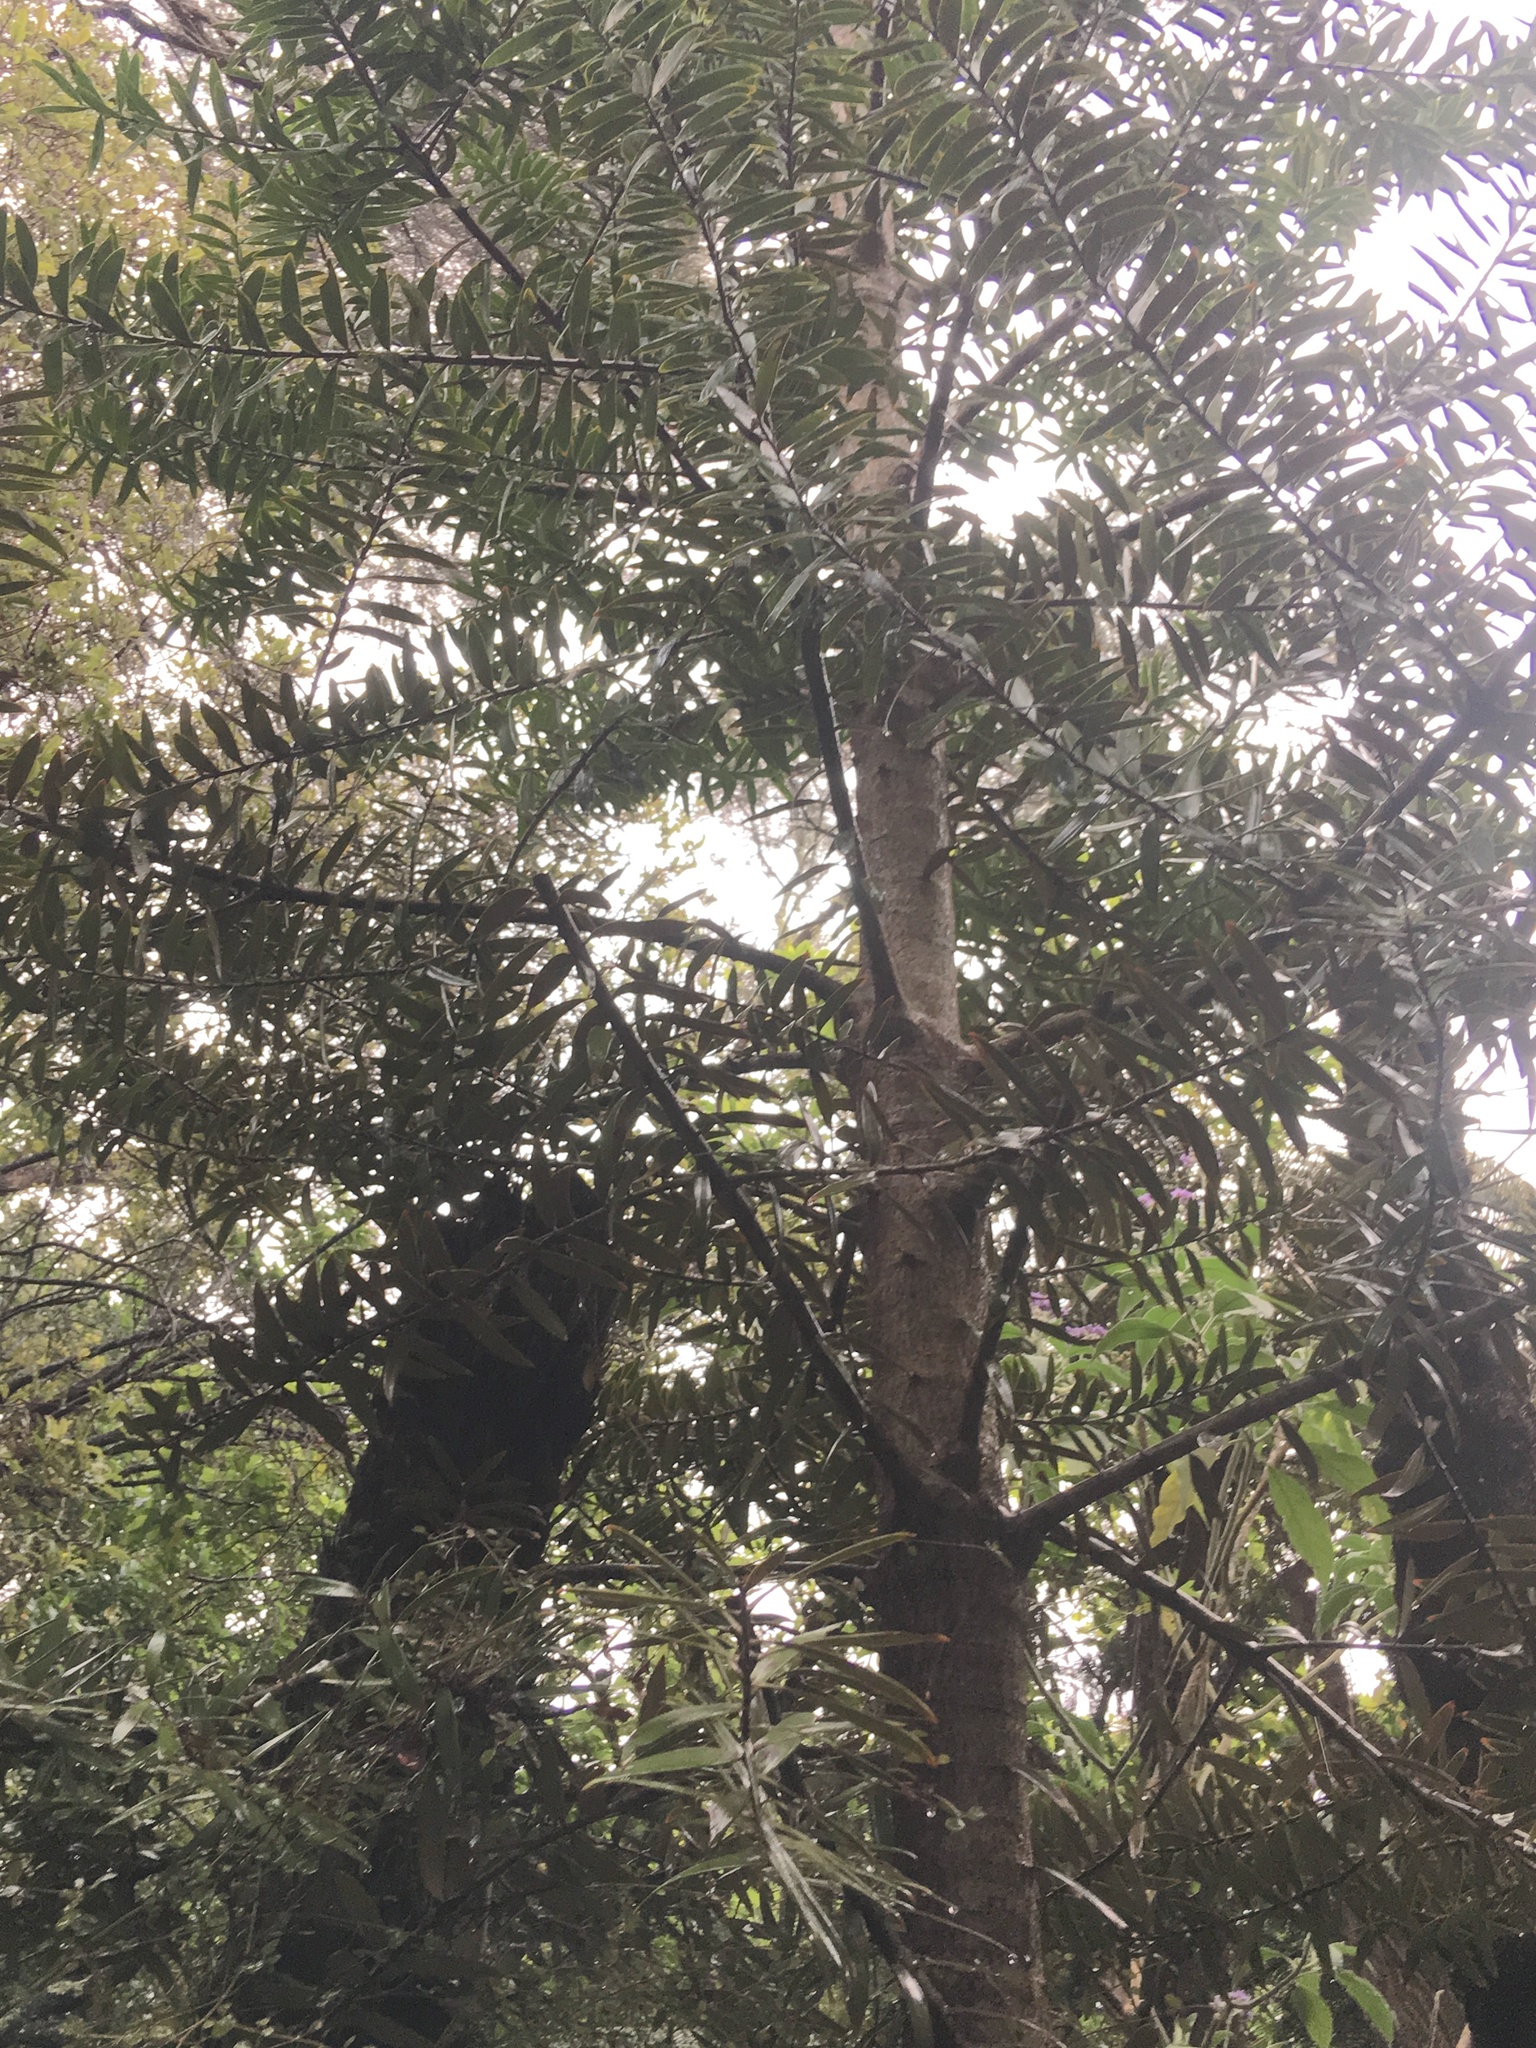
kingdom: Plantae
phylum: Tracheophyta
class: Pinopsida
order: Pinales
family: Araucariaceae
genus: Agathis
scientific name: Agathis australis
